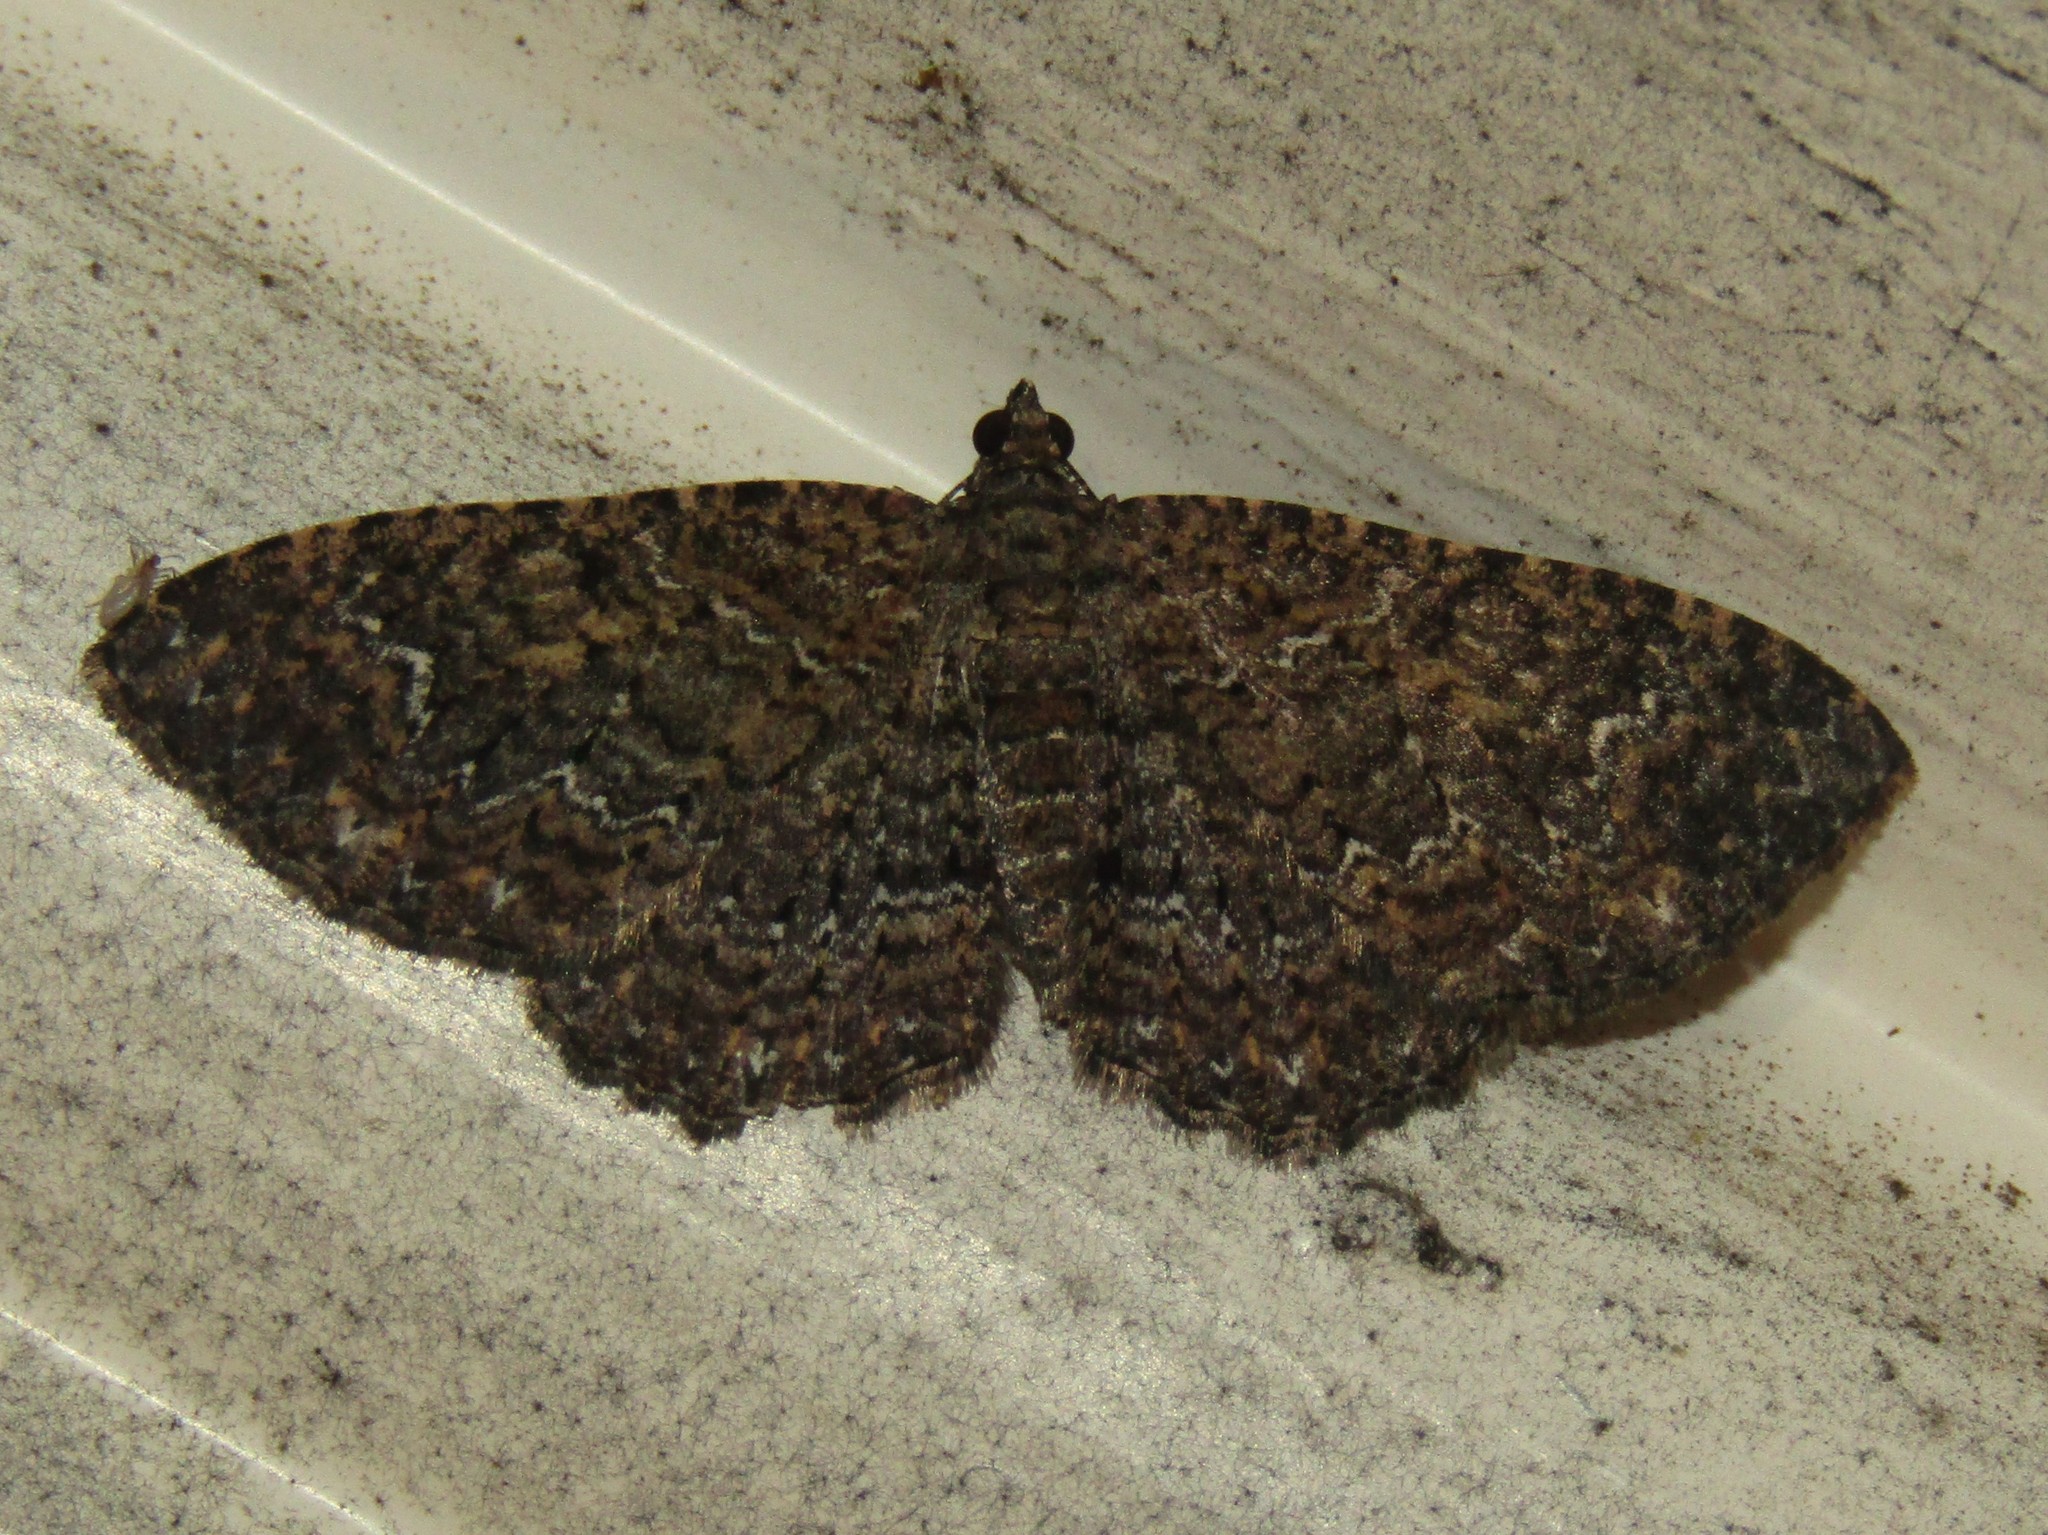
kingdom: Animalia
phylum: Arthropoda
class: Insecta
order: Lepidoptera
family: Geometridae
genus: Disclisioprocta
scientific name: Disclisioprocta stellata
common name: Somber carpet
